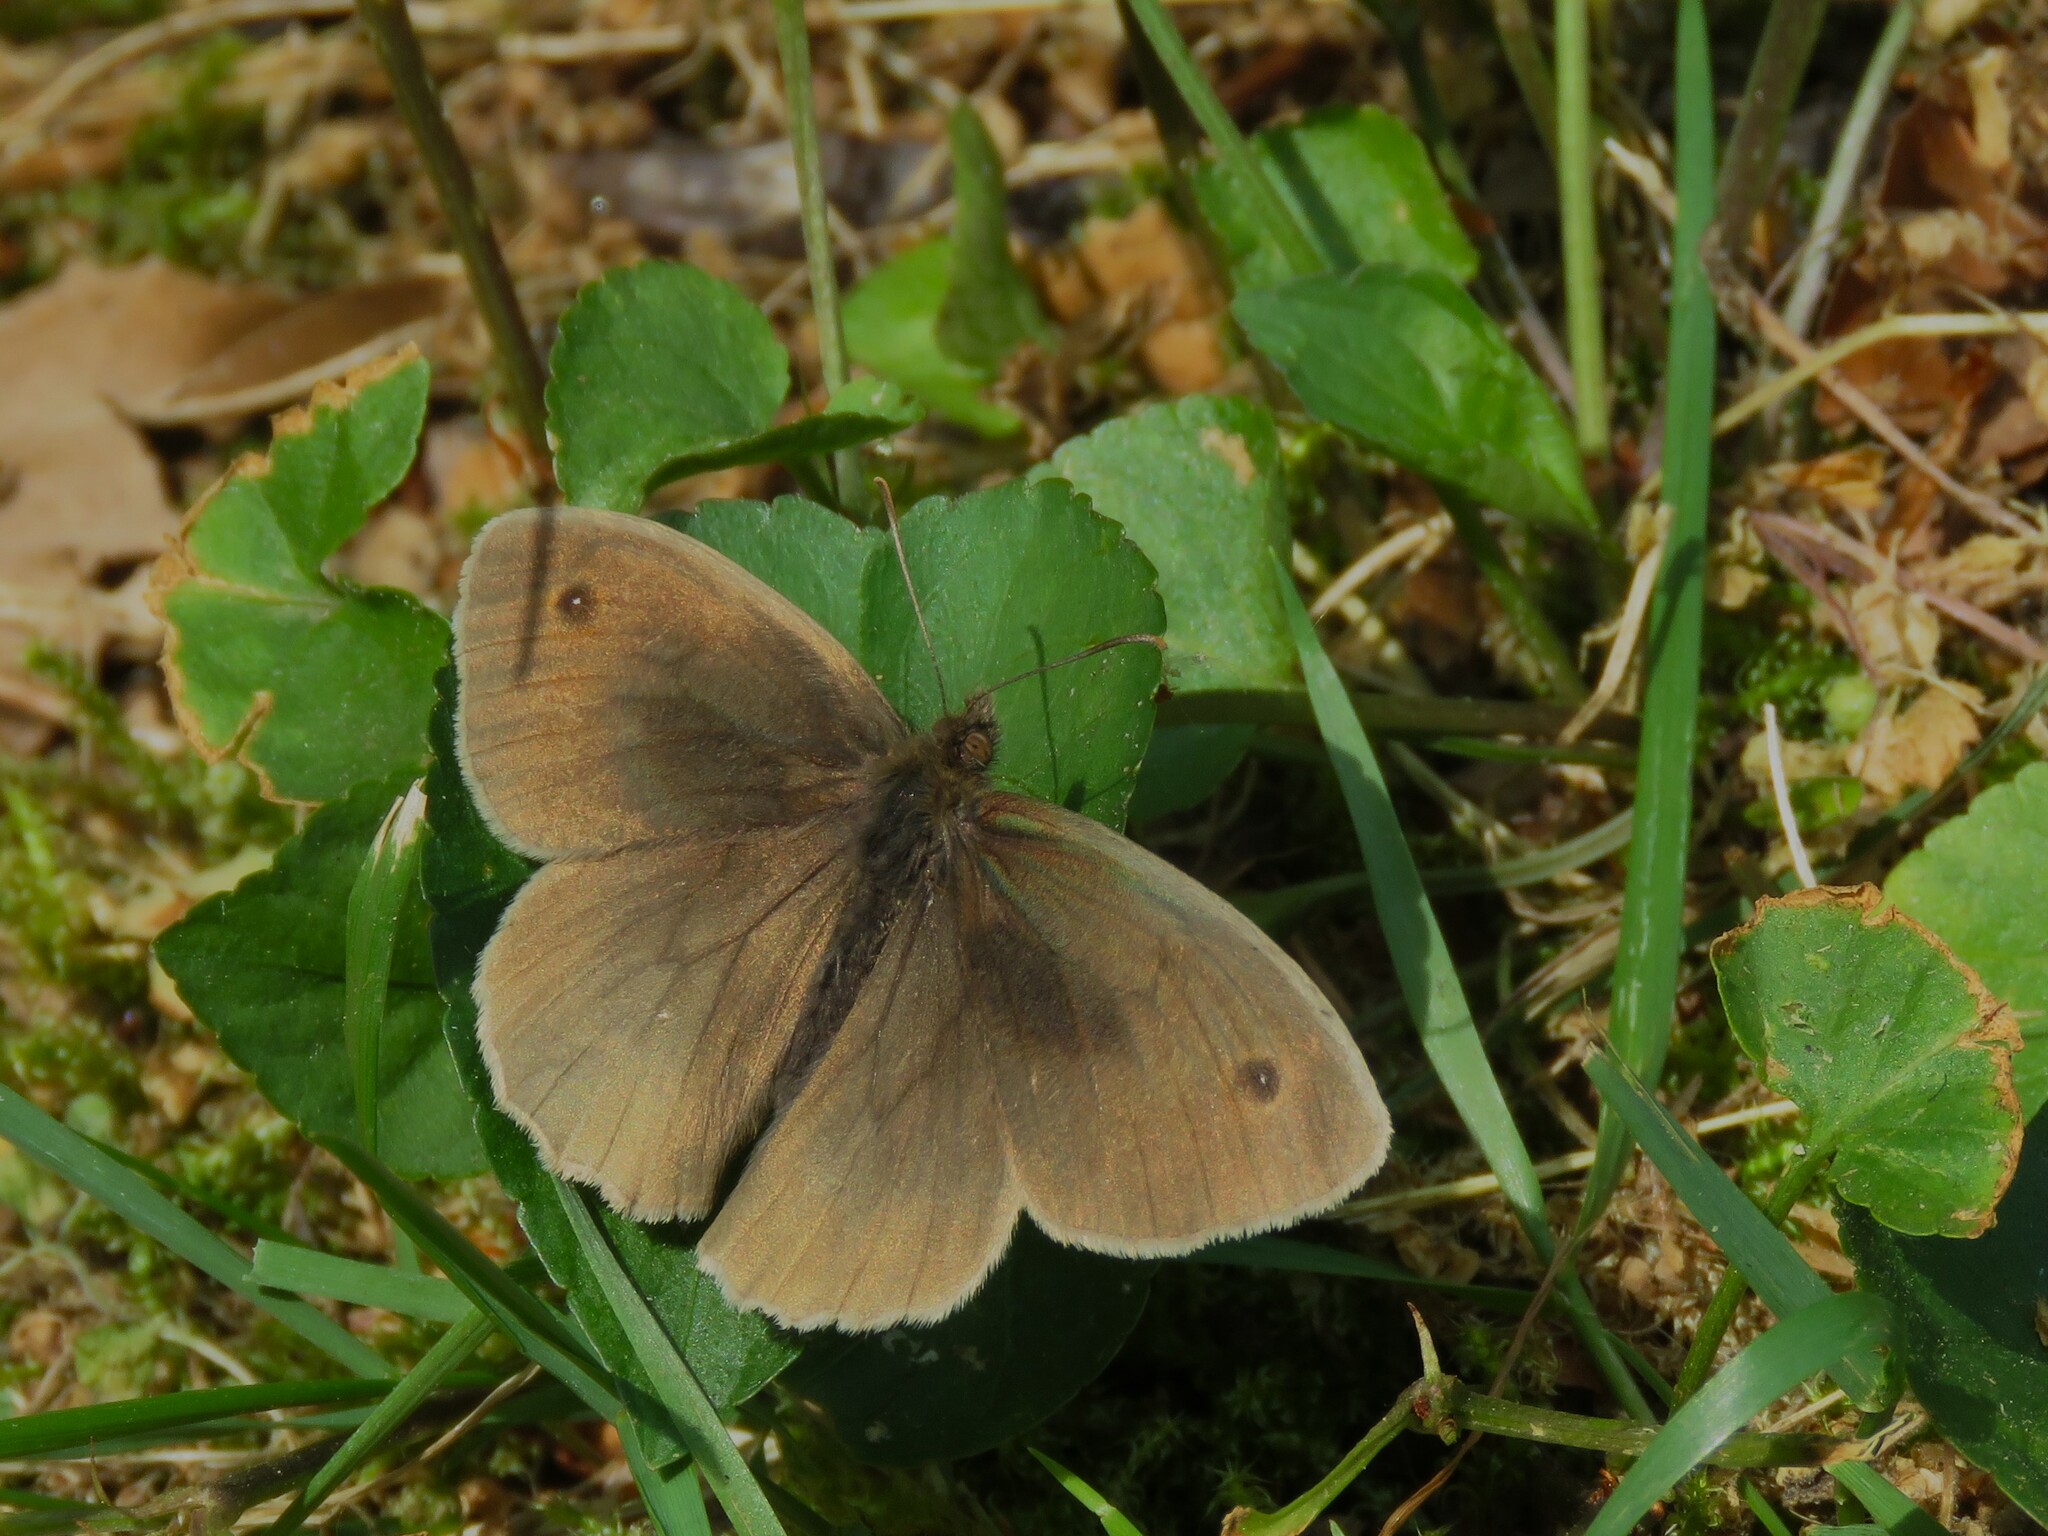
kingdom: Animalia
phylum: Arthropoda
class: Insecta
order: Lepidoptera
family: Nymphalidae
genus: Maniola
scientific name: Maniola jurtina
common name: Meadow brown
